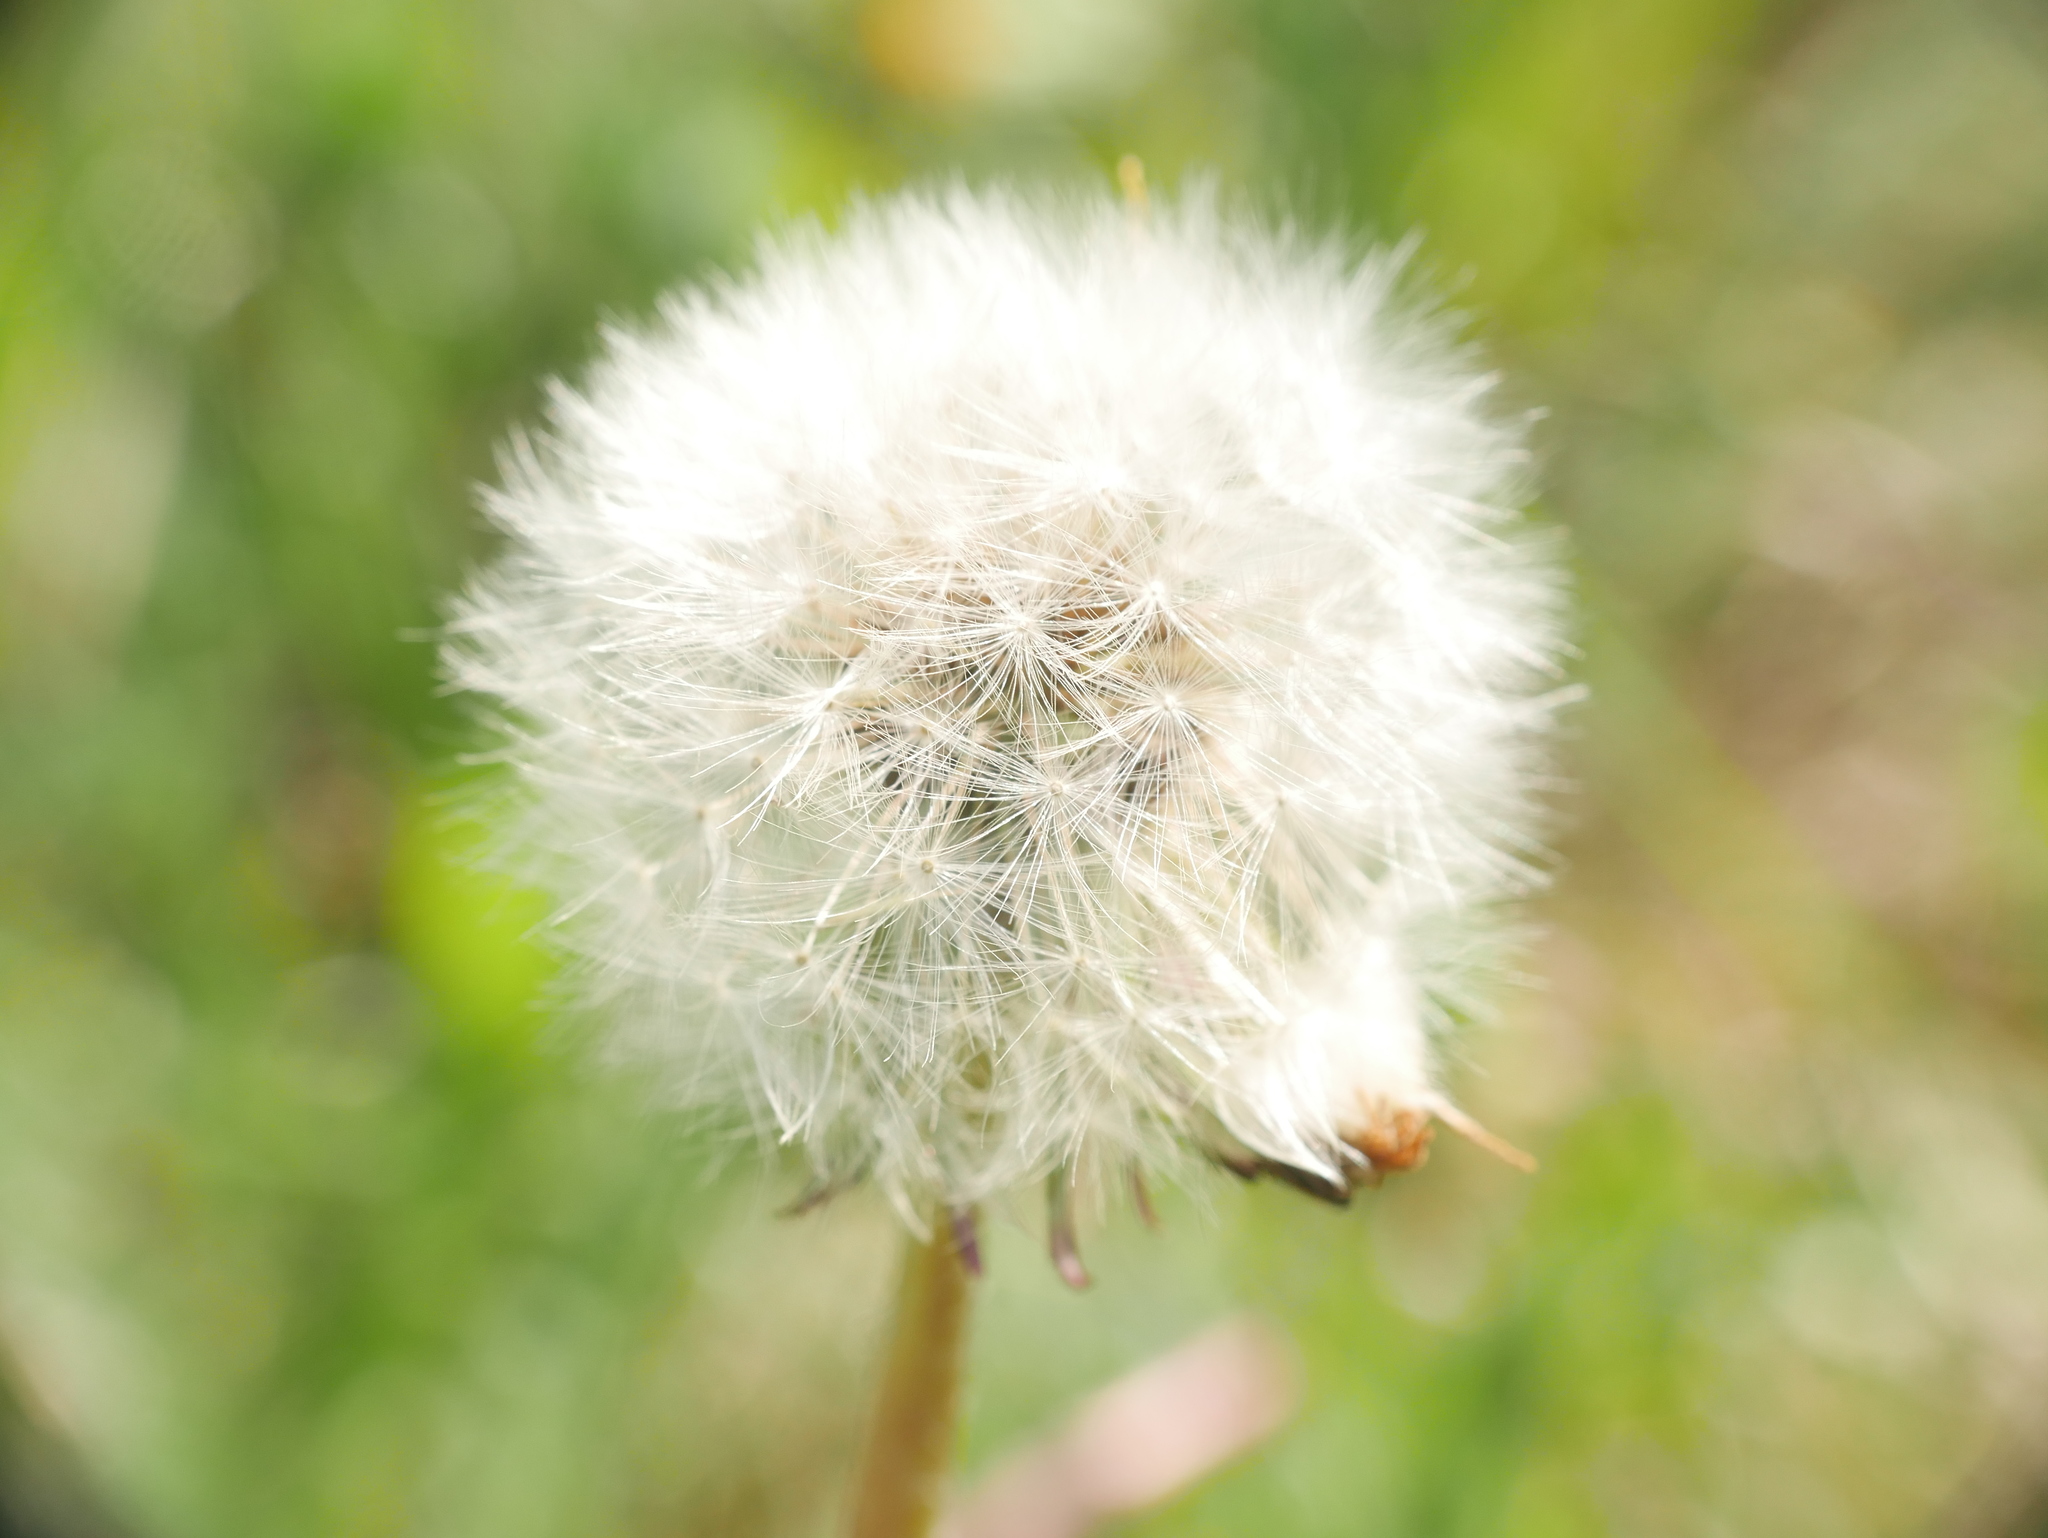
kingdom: Plantae
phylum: Tracheophyta
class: Magnoliopsida
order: Asterales
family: Asteraceae
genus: Taraxacum
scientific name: Taraxacum officinale
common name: Common dandelion
